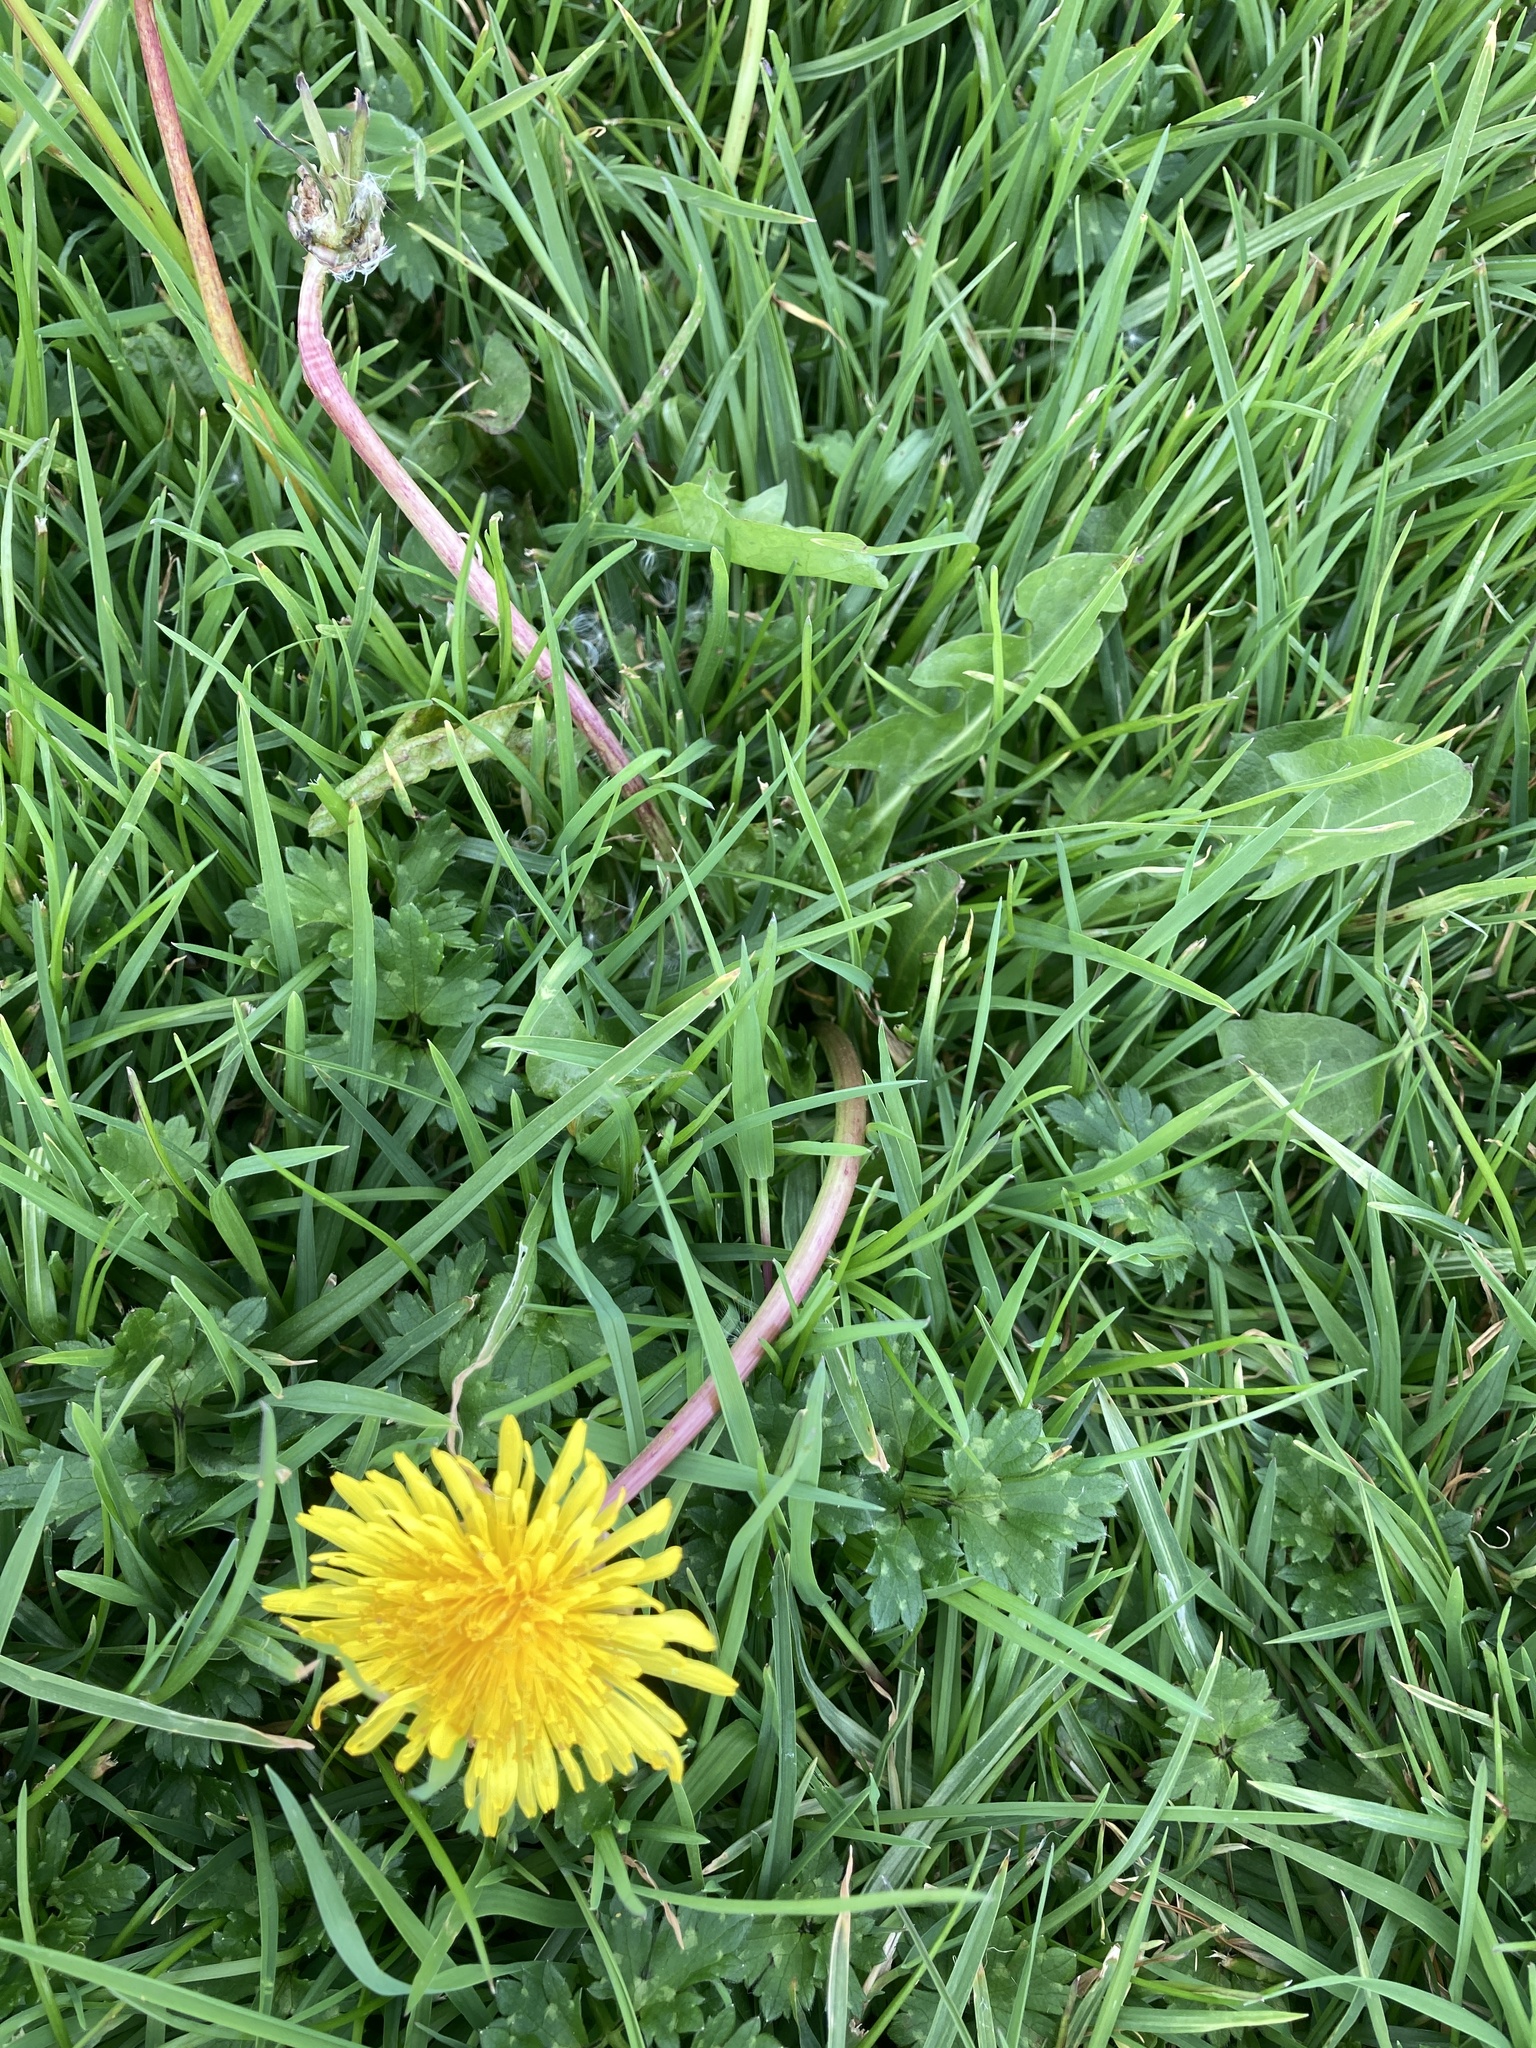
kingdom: Plantae
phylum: Tracheophyta
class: Magnoliopsida
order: Asterales
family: Asteraceae
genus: Taraxacum
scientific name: Taraxacum officinale
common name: Common dandelion
